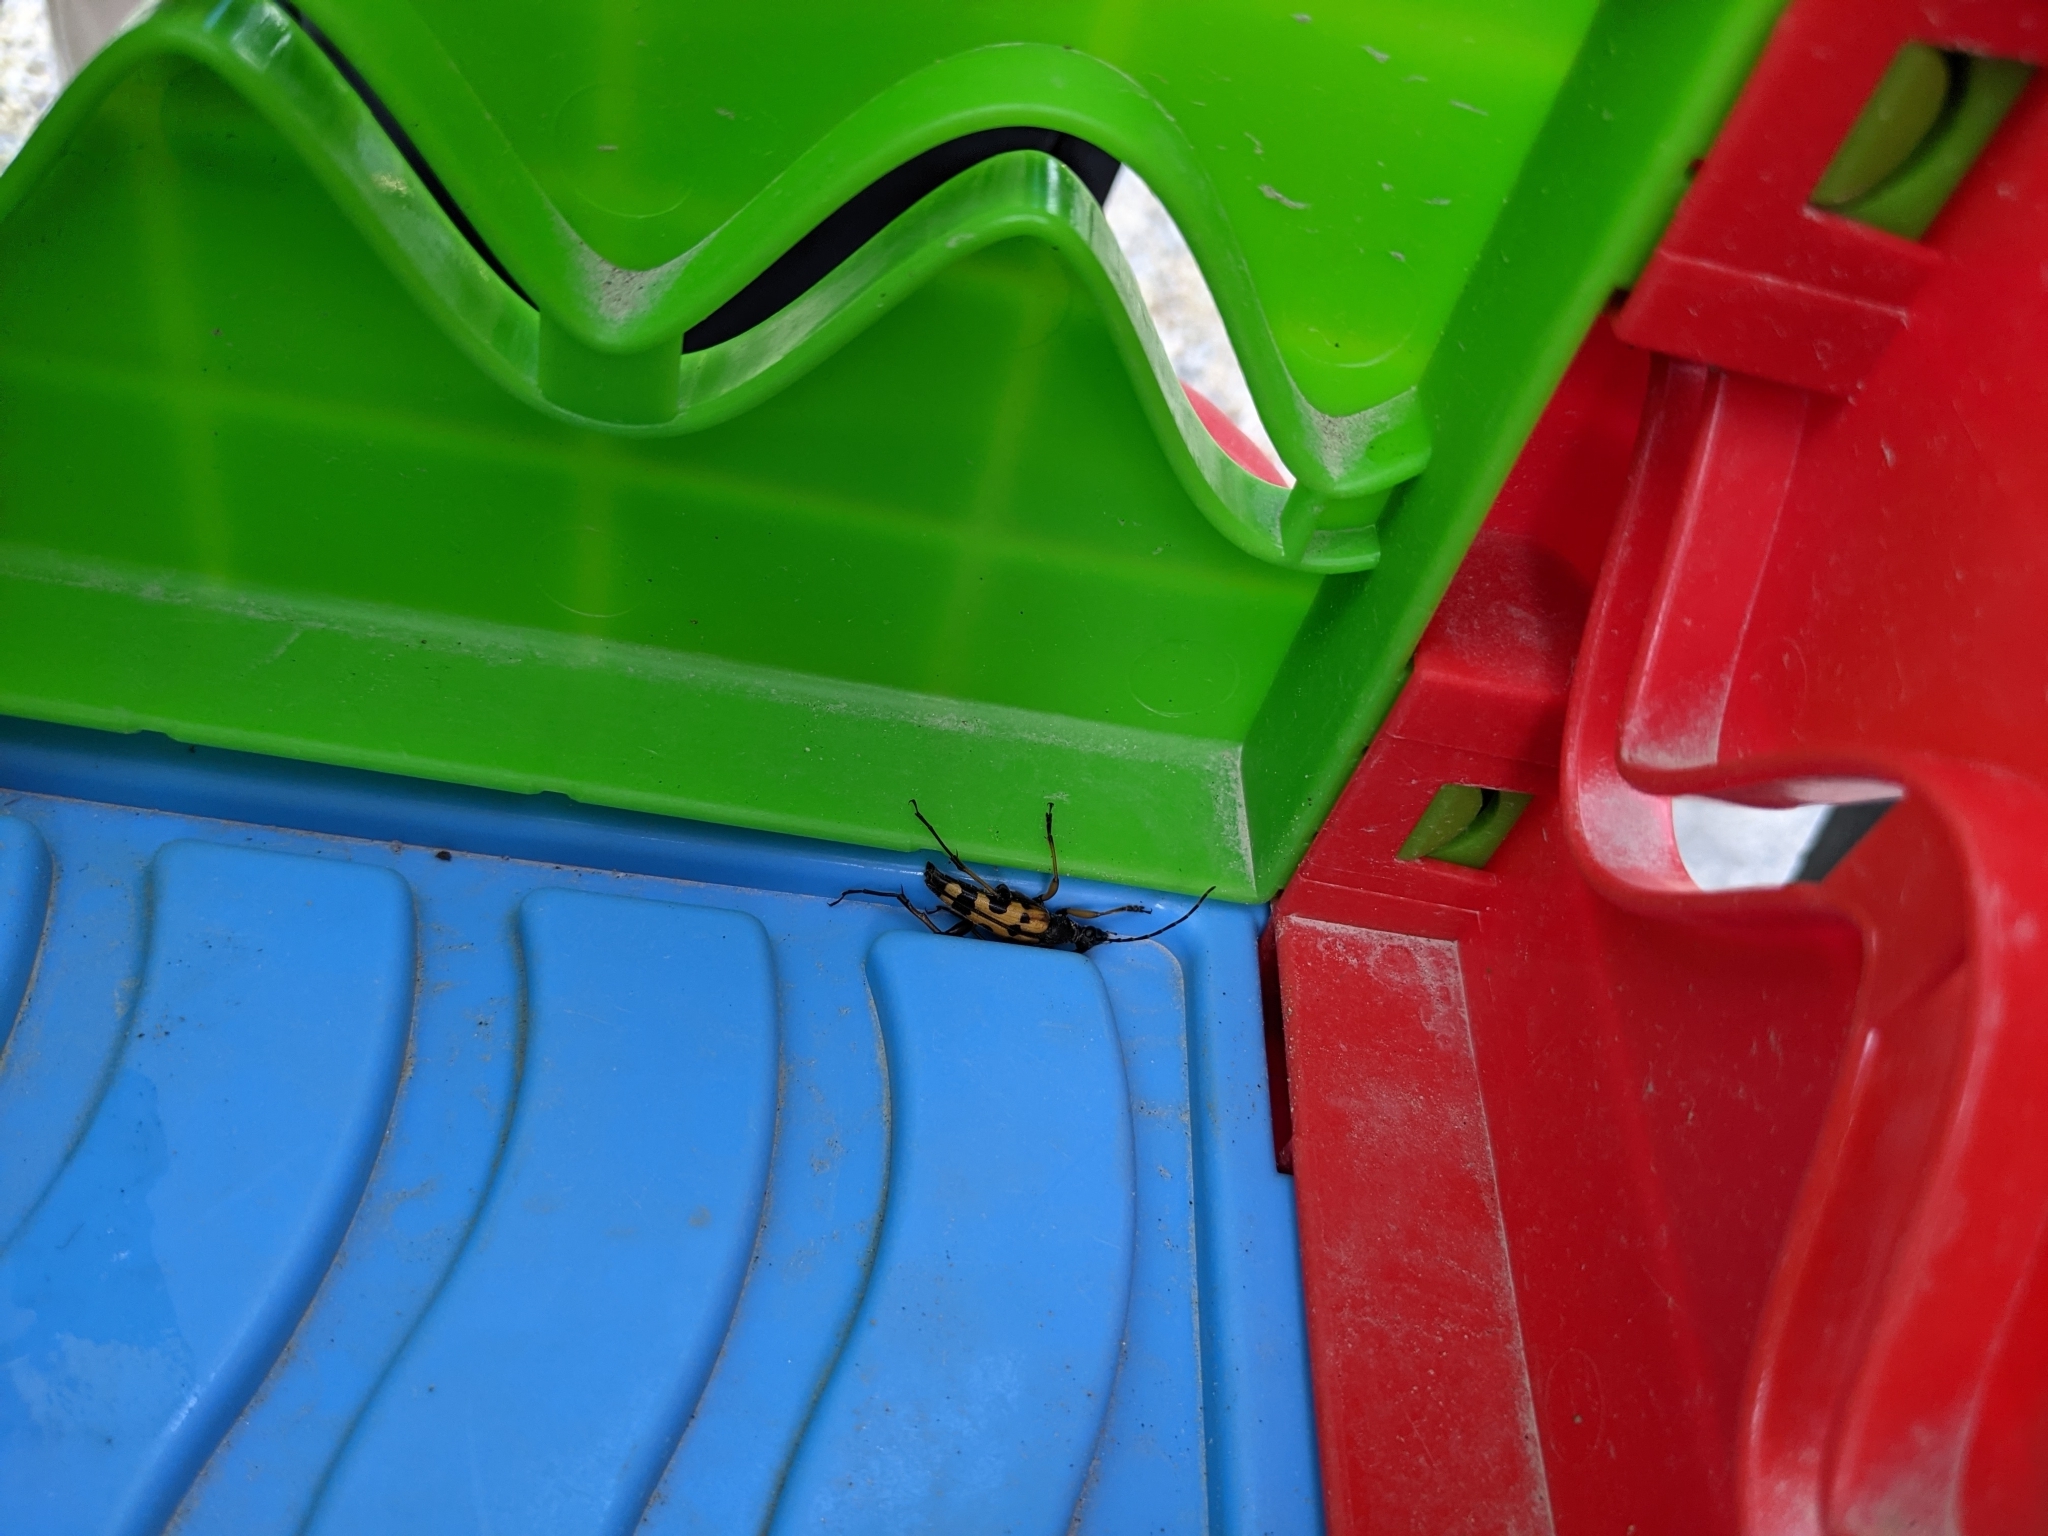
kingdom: Animalia
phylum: Arthropoda
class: Insecta
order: Coleoptera
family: Cerambycidae
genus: Rutpela
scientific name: Rutpela maculata
